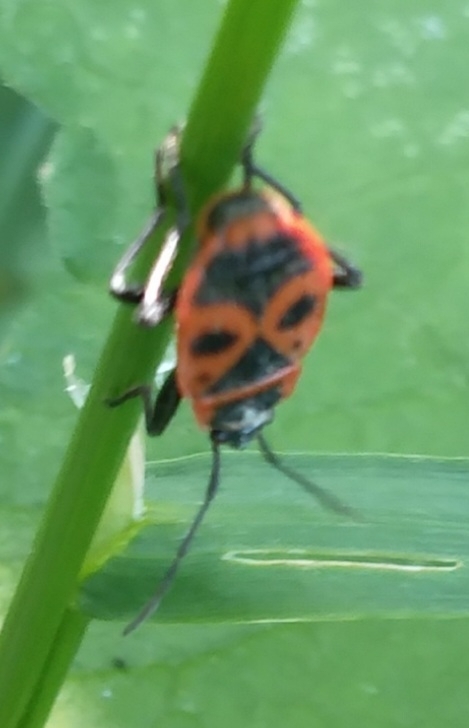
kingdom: Animalia
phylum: Arthropoda
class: Insecta
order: Hemiptera
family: Pyrrhocoridae
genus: Pyrrhocoris
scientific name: Pyrrhocoris apterus
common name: Firebug
